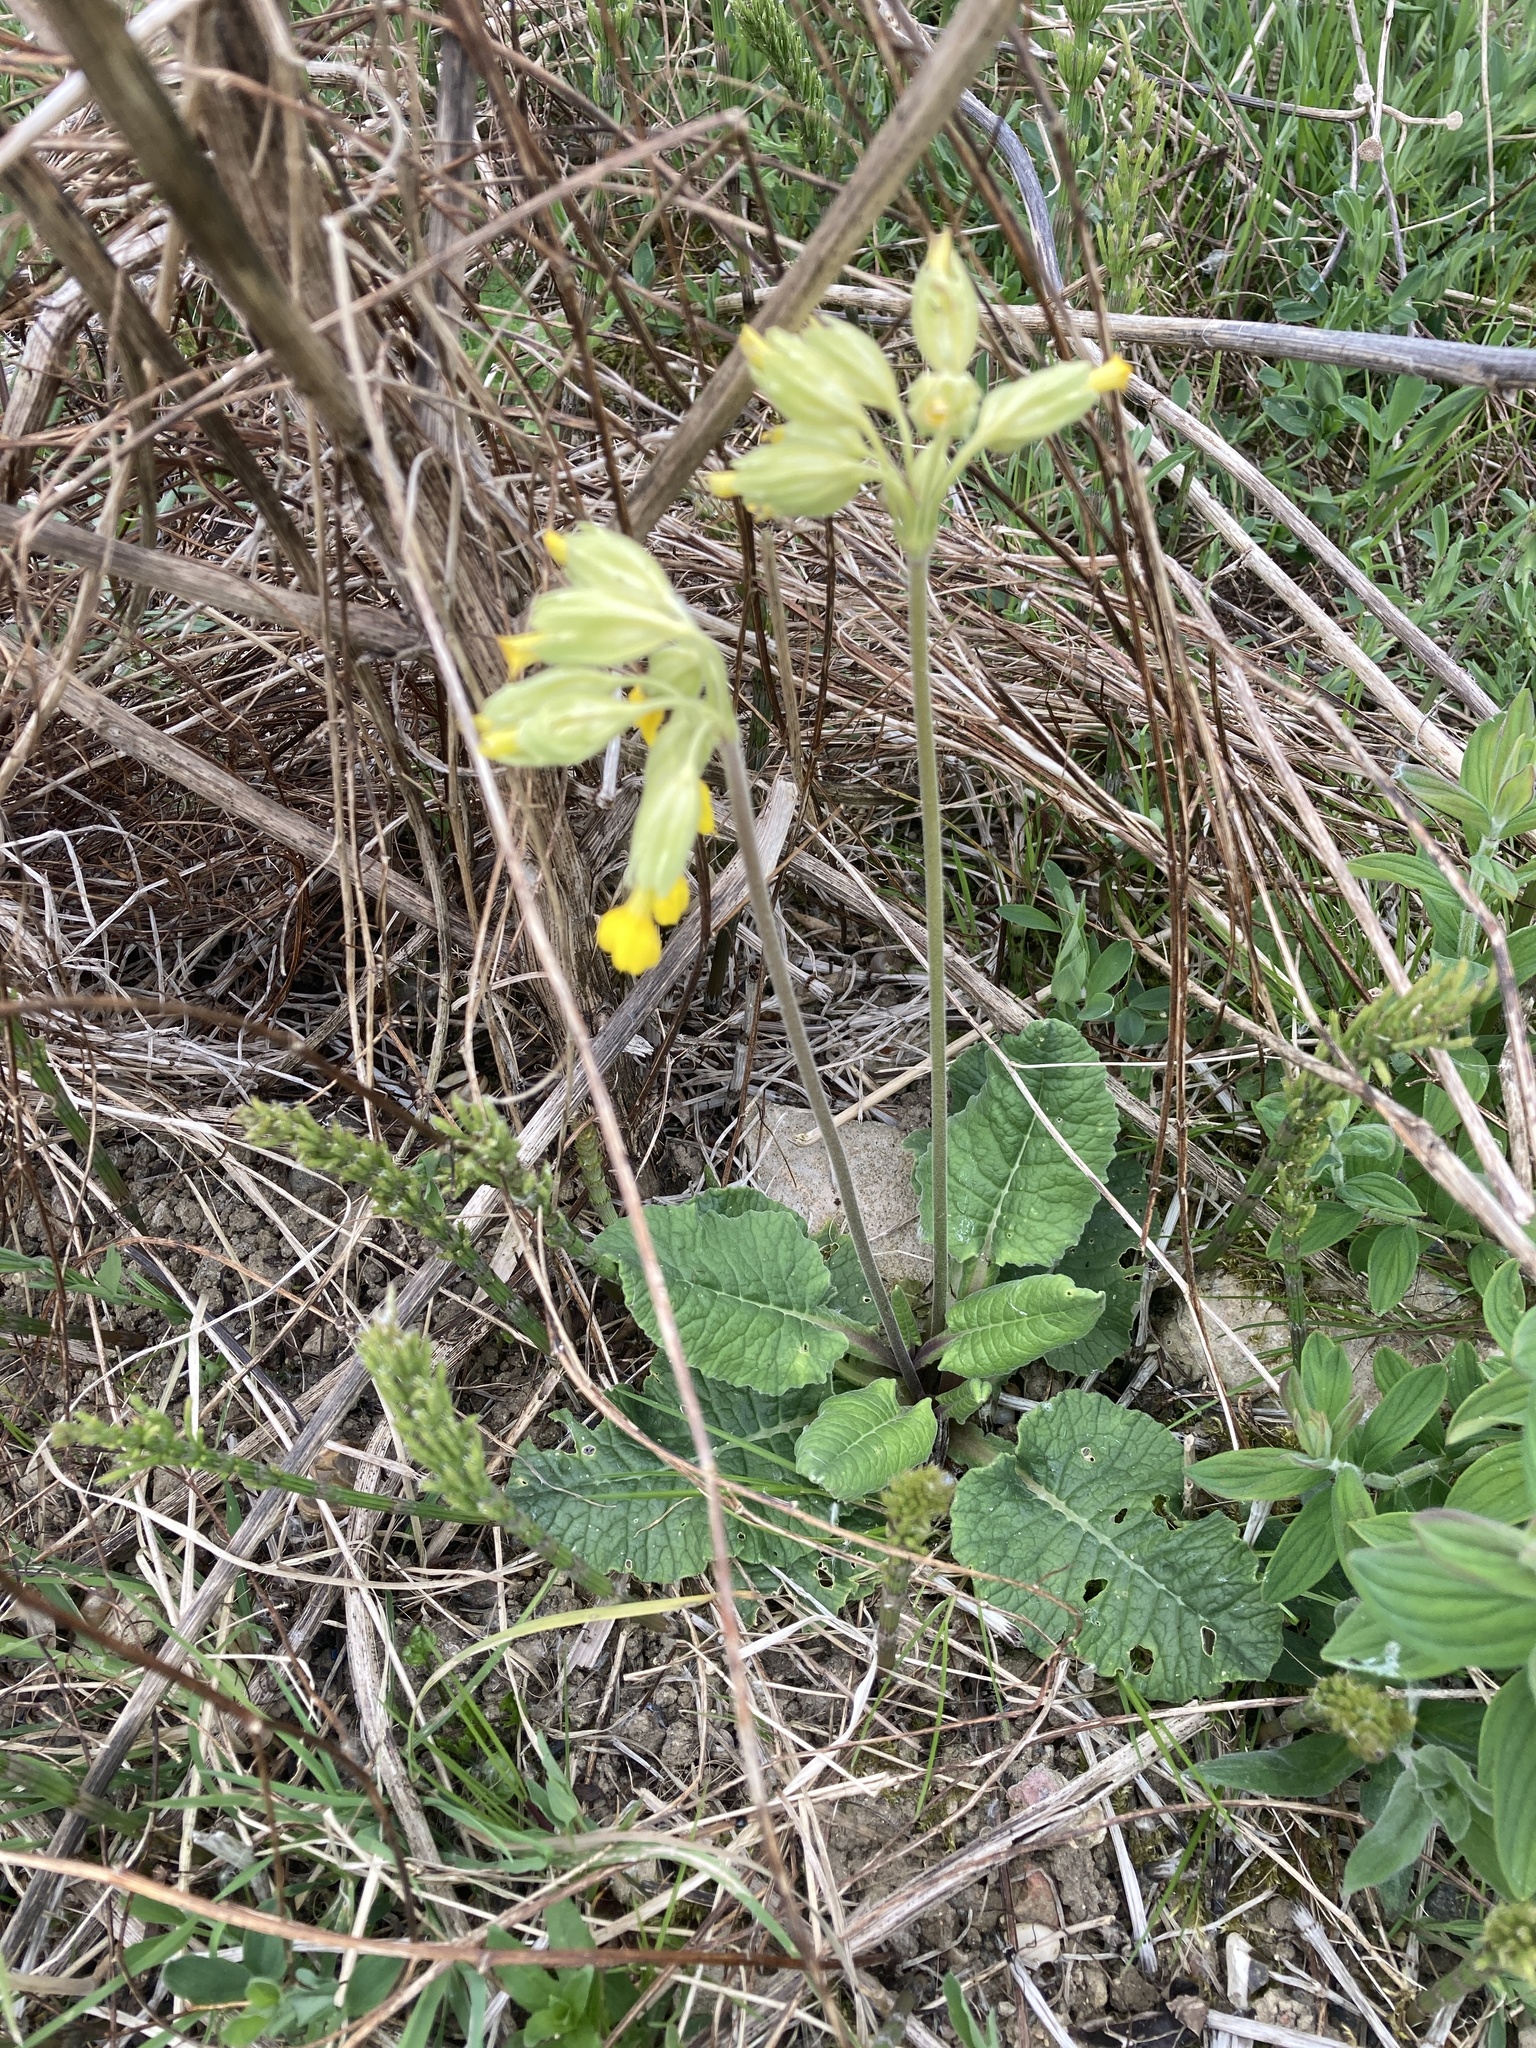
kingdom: Plantae
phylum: Tracheophyta
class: Magnoliopsida
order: Ericales
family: Primulaceae
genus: Primula
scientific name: Primula veris
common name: Cowslip
